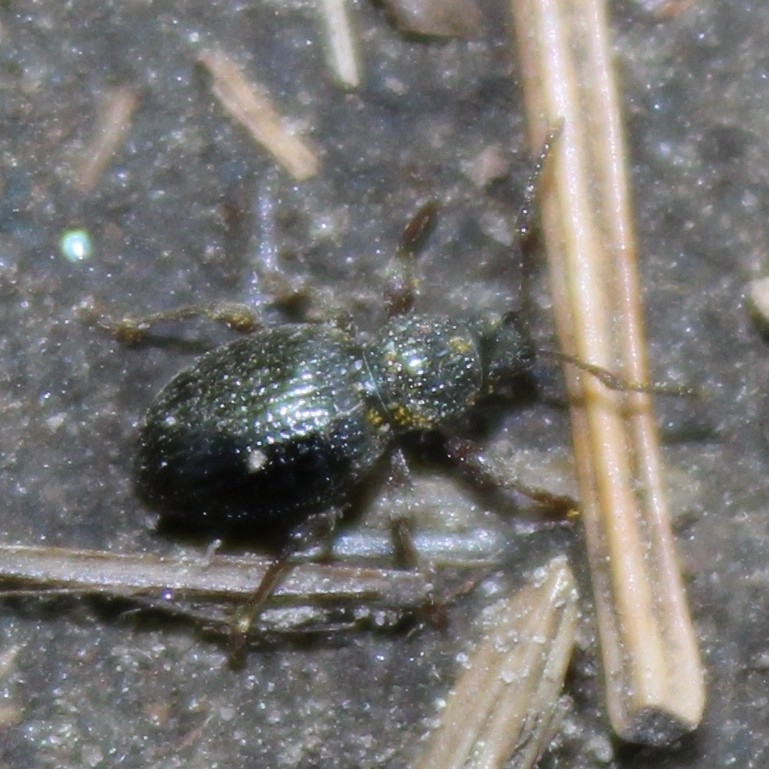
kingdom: Animalia
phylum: Arthropoda
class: Insecta
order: Coleoptera
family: Curculionidae
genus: Otiorhynchus
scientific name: Otiorhynchus ovatus
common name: Strawberry root weevil
